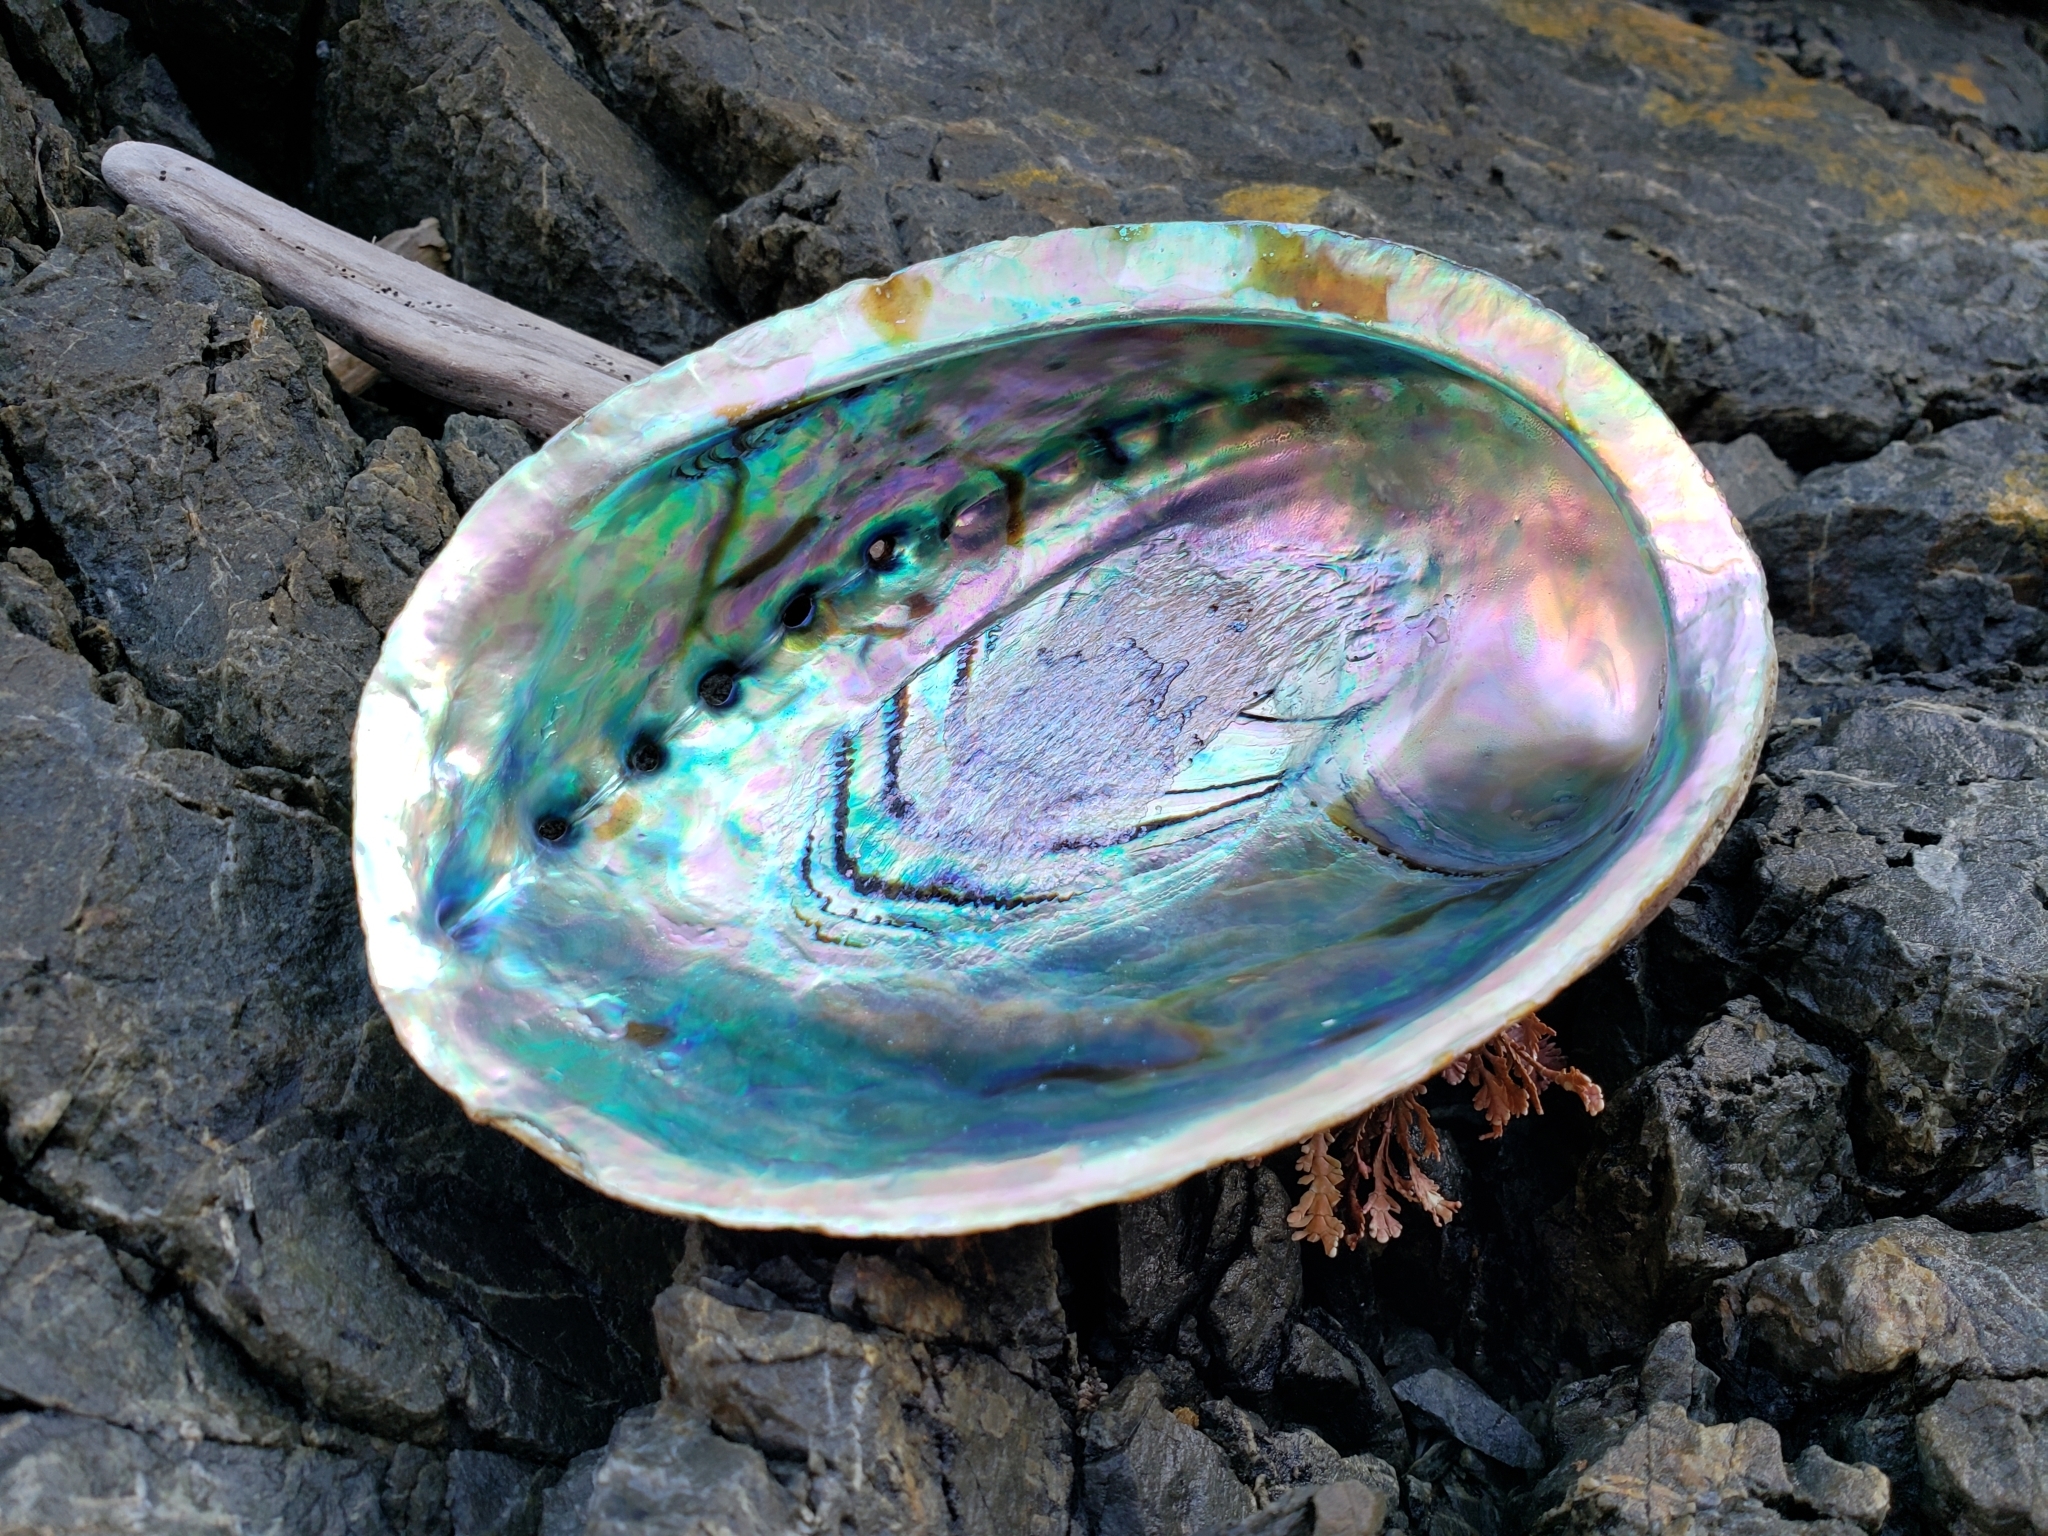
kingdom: Animalia
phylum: Mollusca
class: Gastropoda
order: Lepetellida
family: Haliotidae
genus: Haliotis
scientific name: Haliotis iris
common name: Abalone
